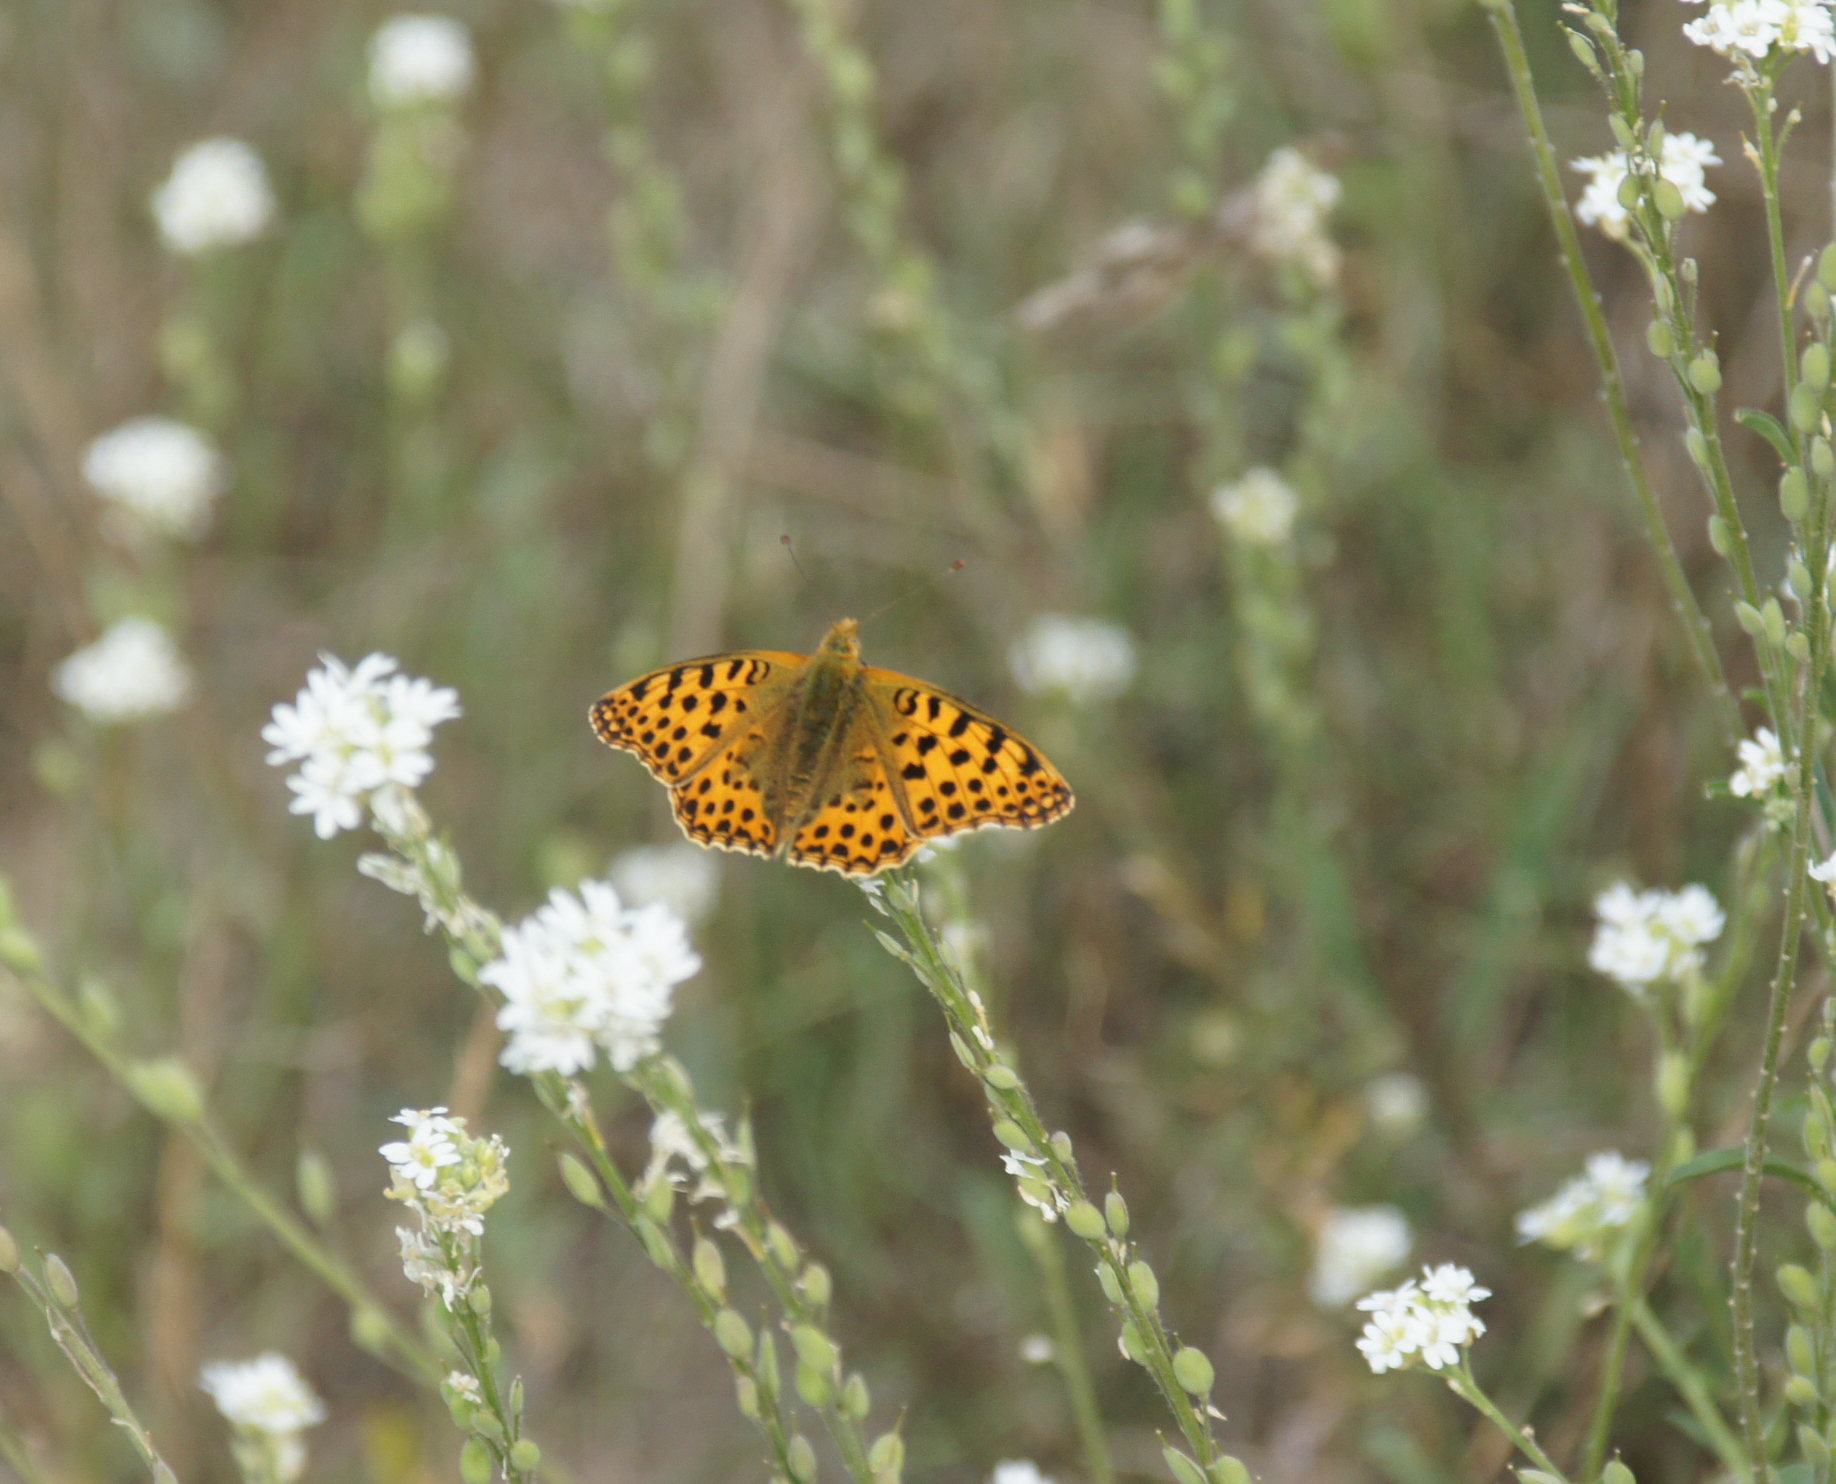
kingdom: Animalia
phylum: Arthropoda
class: Insecta
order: Lepidoptera
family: Nymphalidae
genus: Issoria
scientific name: Issoria lathonia
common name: Queen of spain fritillary
